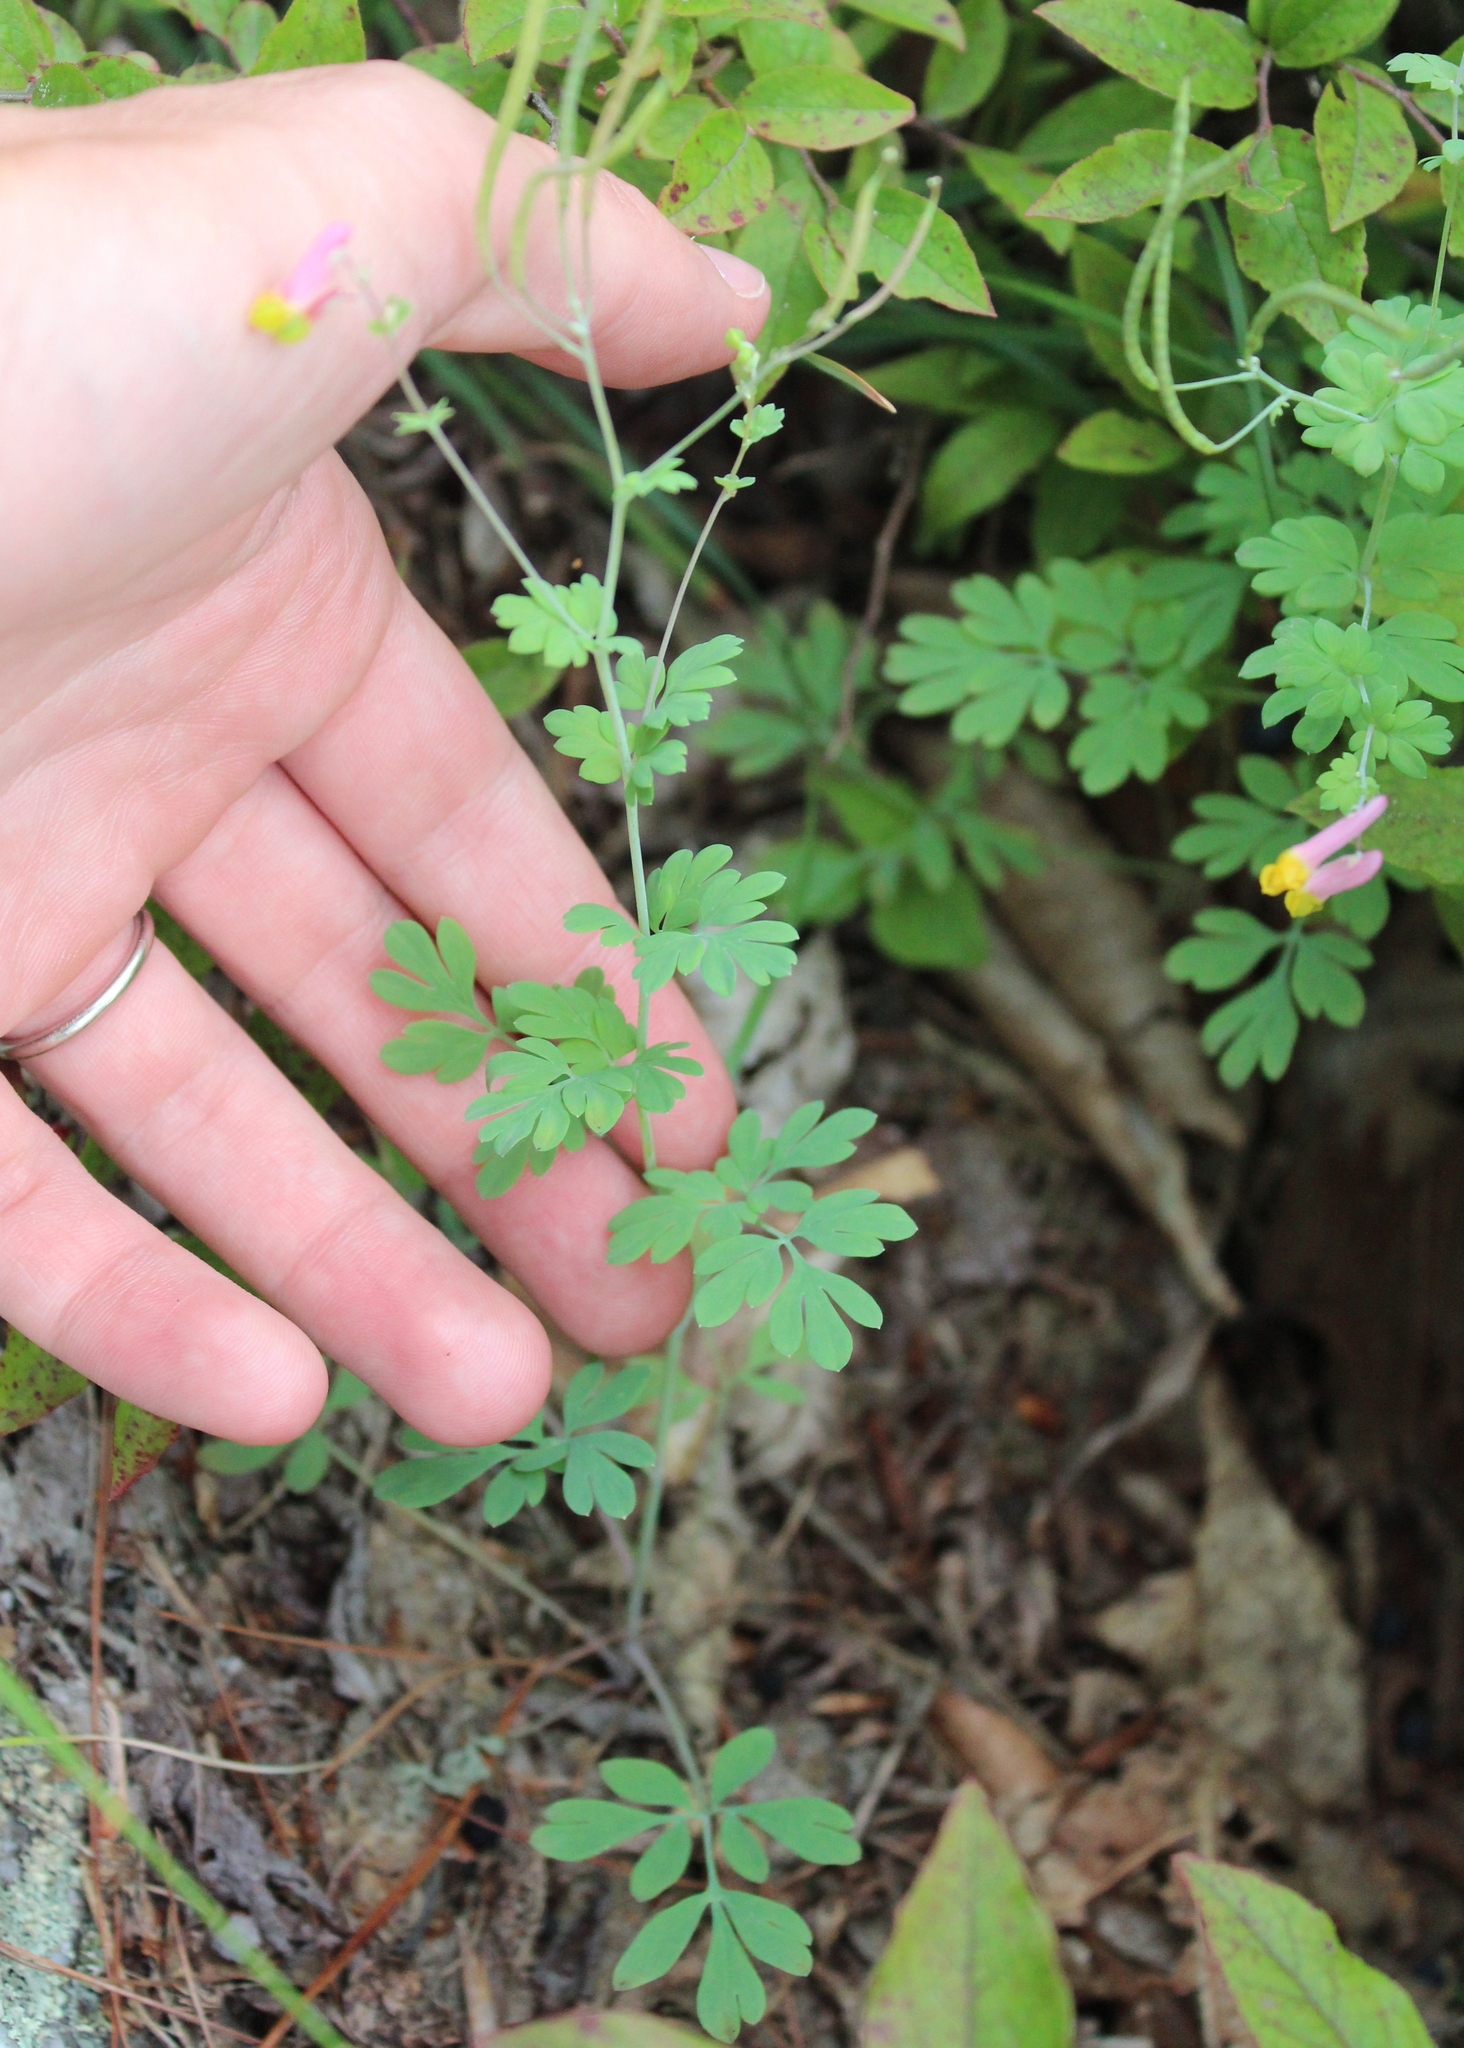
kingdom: Plantae
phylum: Tracheophyta
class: Magnoliopsida
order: Ranunculales
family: Papaveraceae
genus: Capnoides
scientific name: Capnoides sempervirens
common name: Rock harlequin
